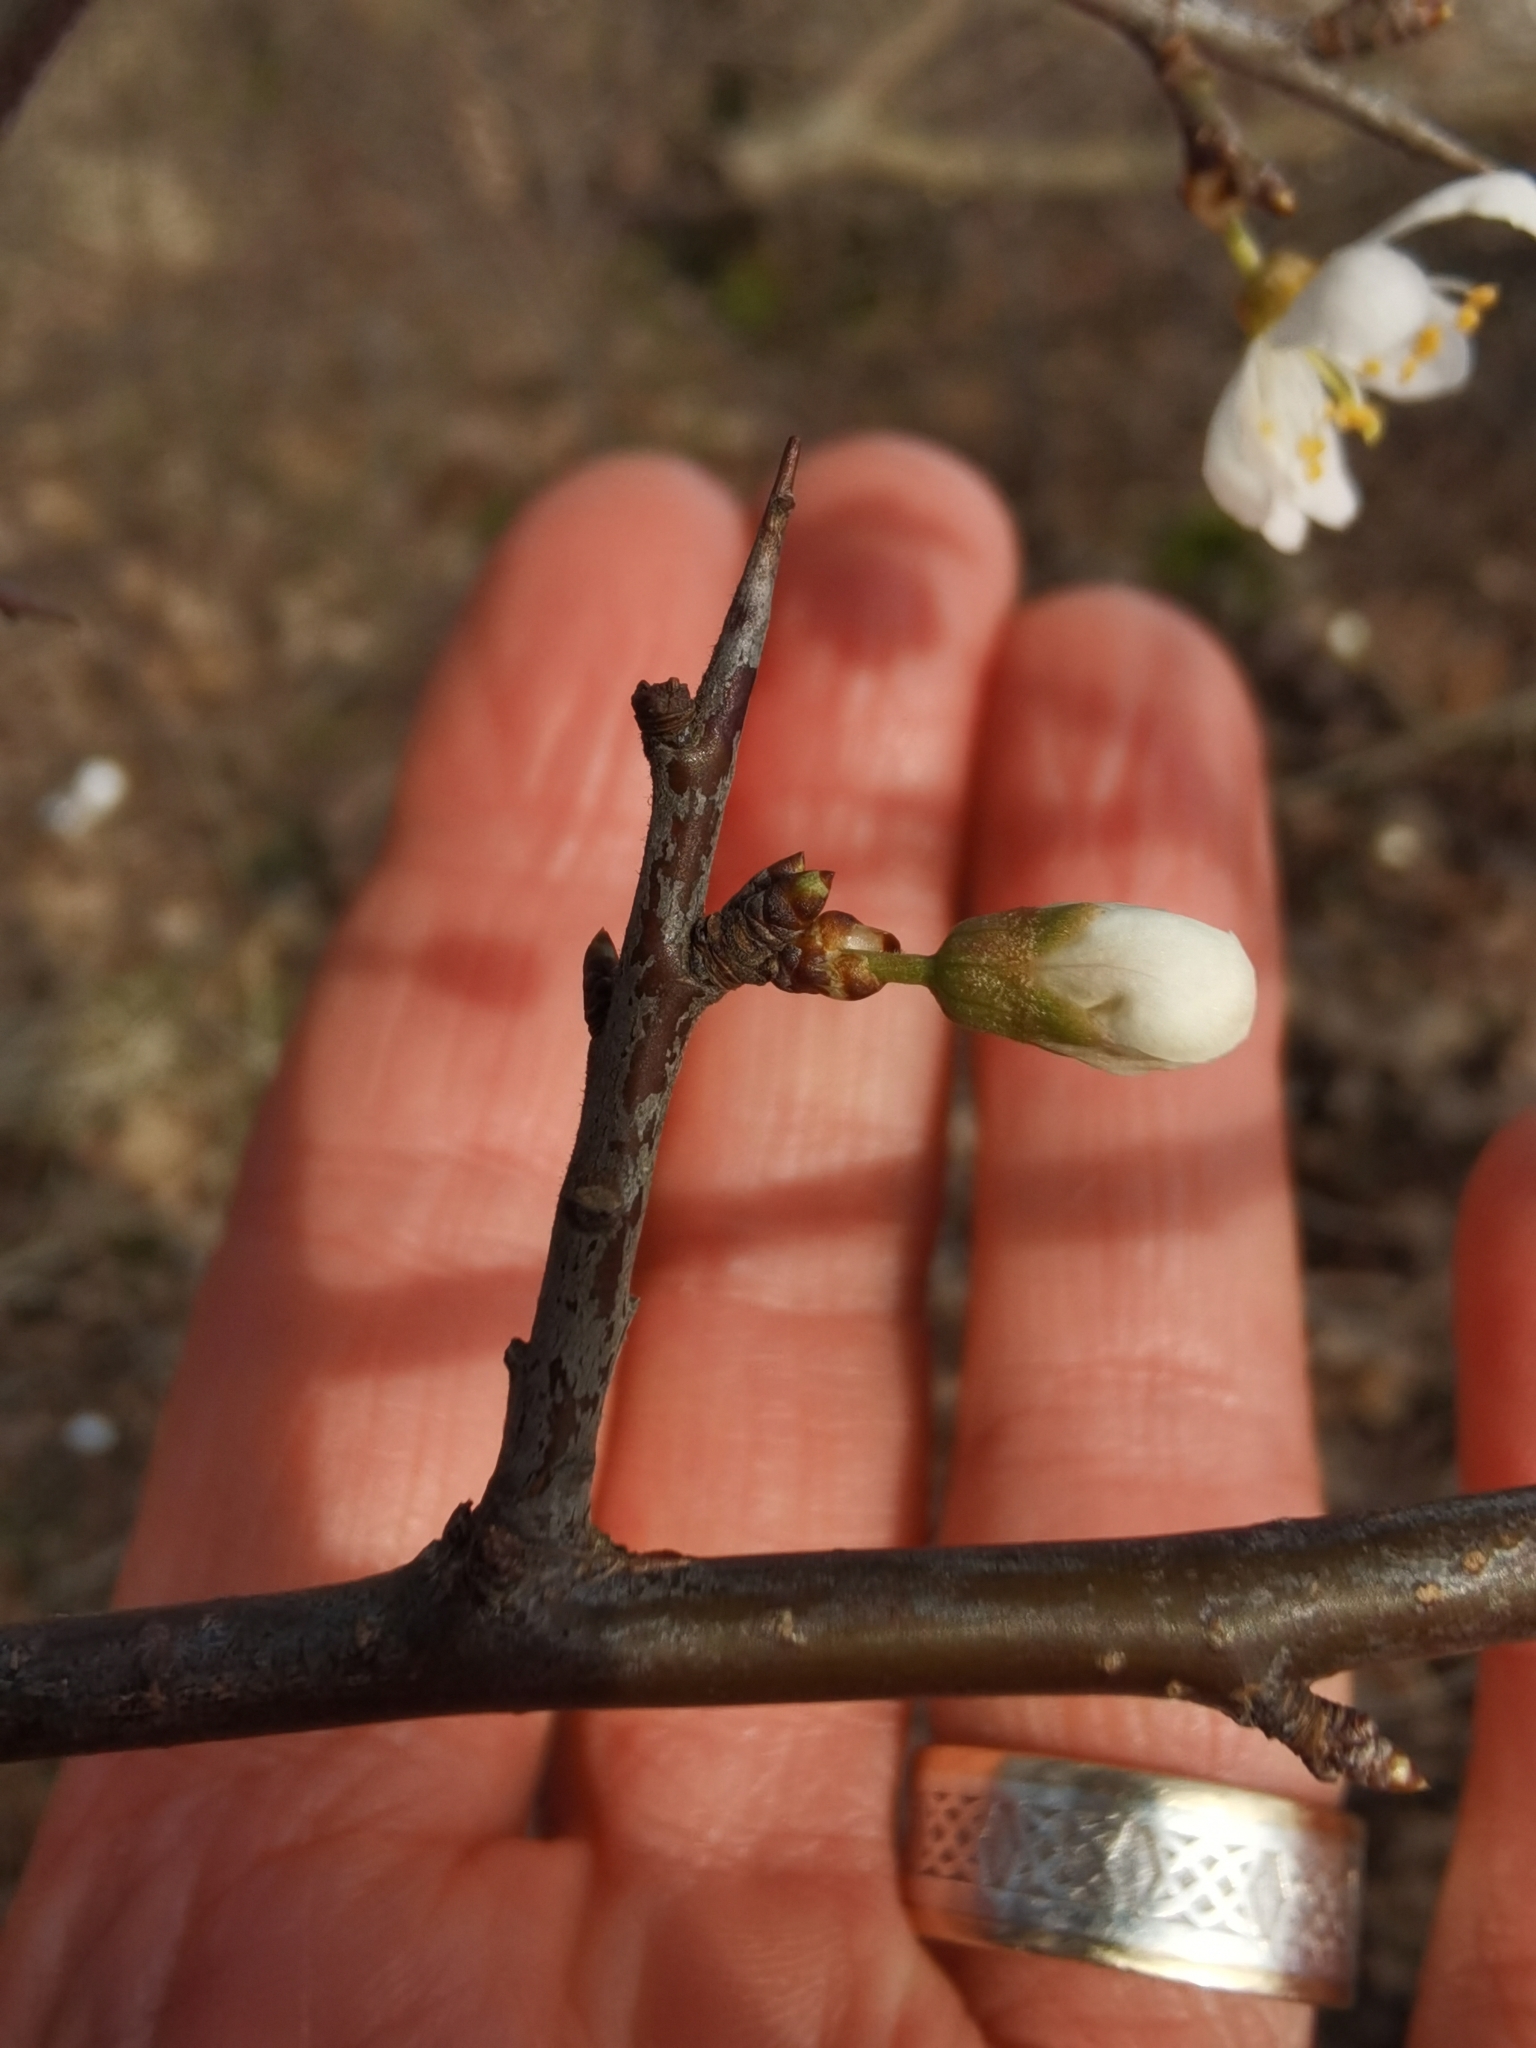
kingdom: Plantae
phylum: Tracheophyta
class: Magnoliopsida
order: Rosales
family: Rosaceae
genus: Prunus
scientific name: Prunus spinosa
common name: Blackthorn
